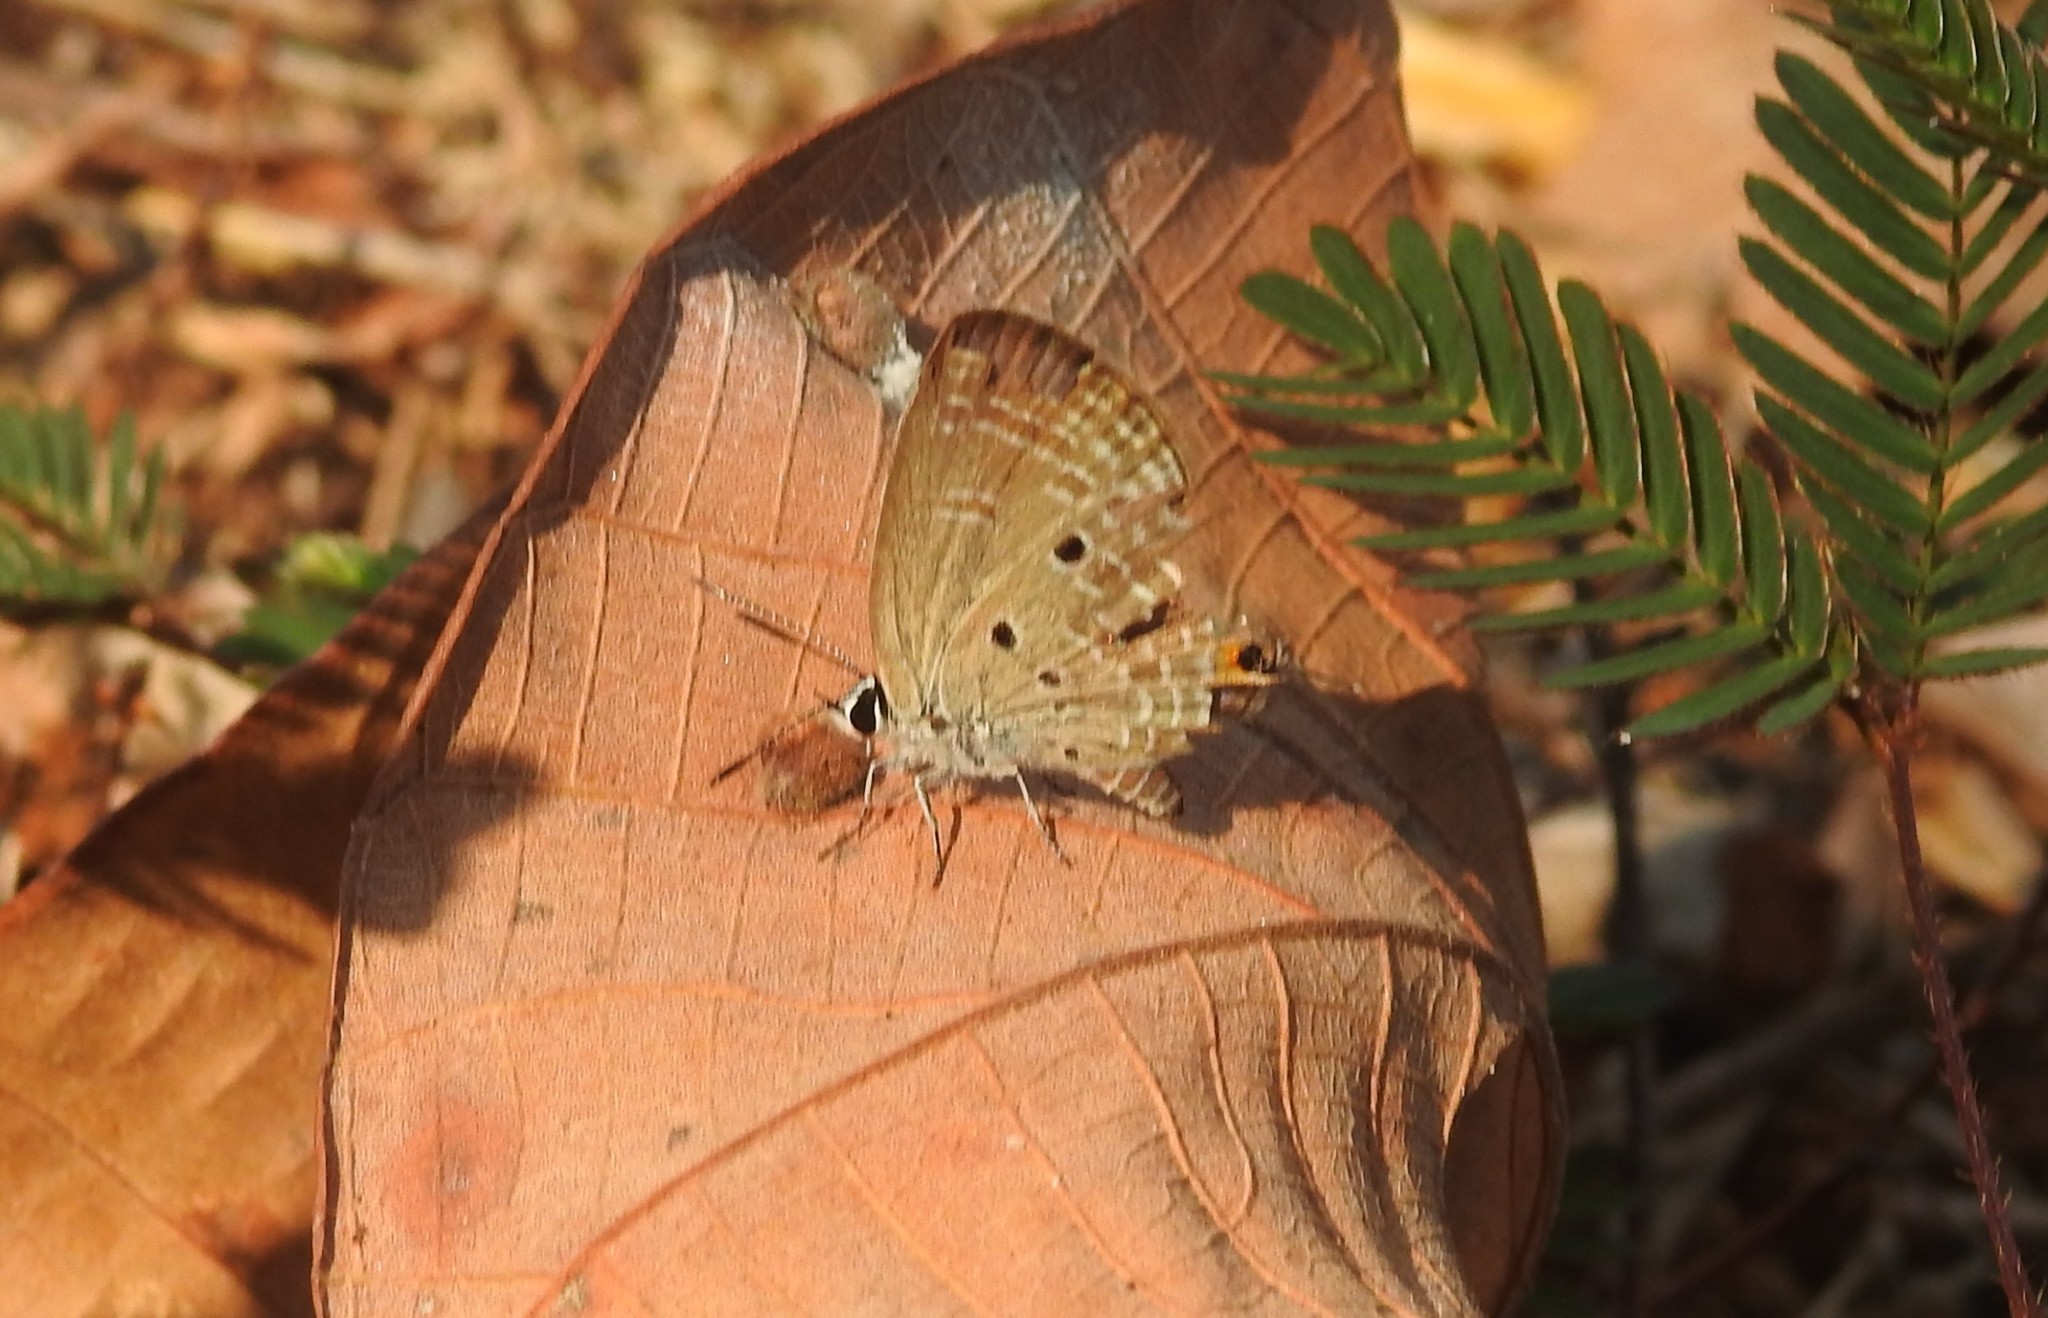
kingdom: Animalia
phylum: Arthropoda
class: Insecta
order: Lepidoptera
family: Lycaenidae
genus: Luthrodes
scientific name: Luthrodes pandava
